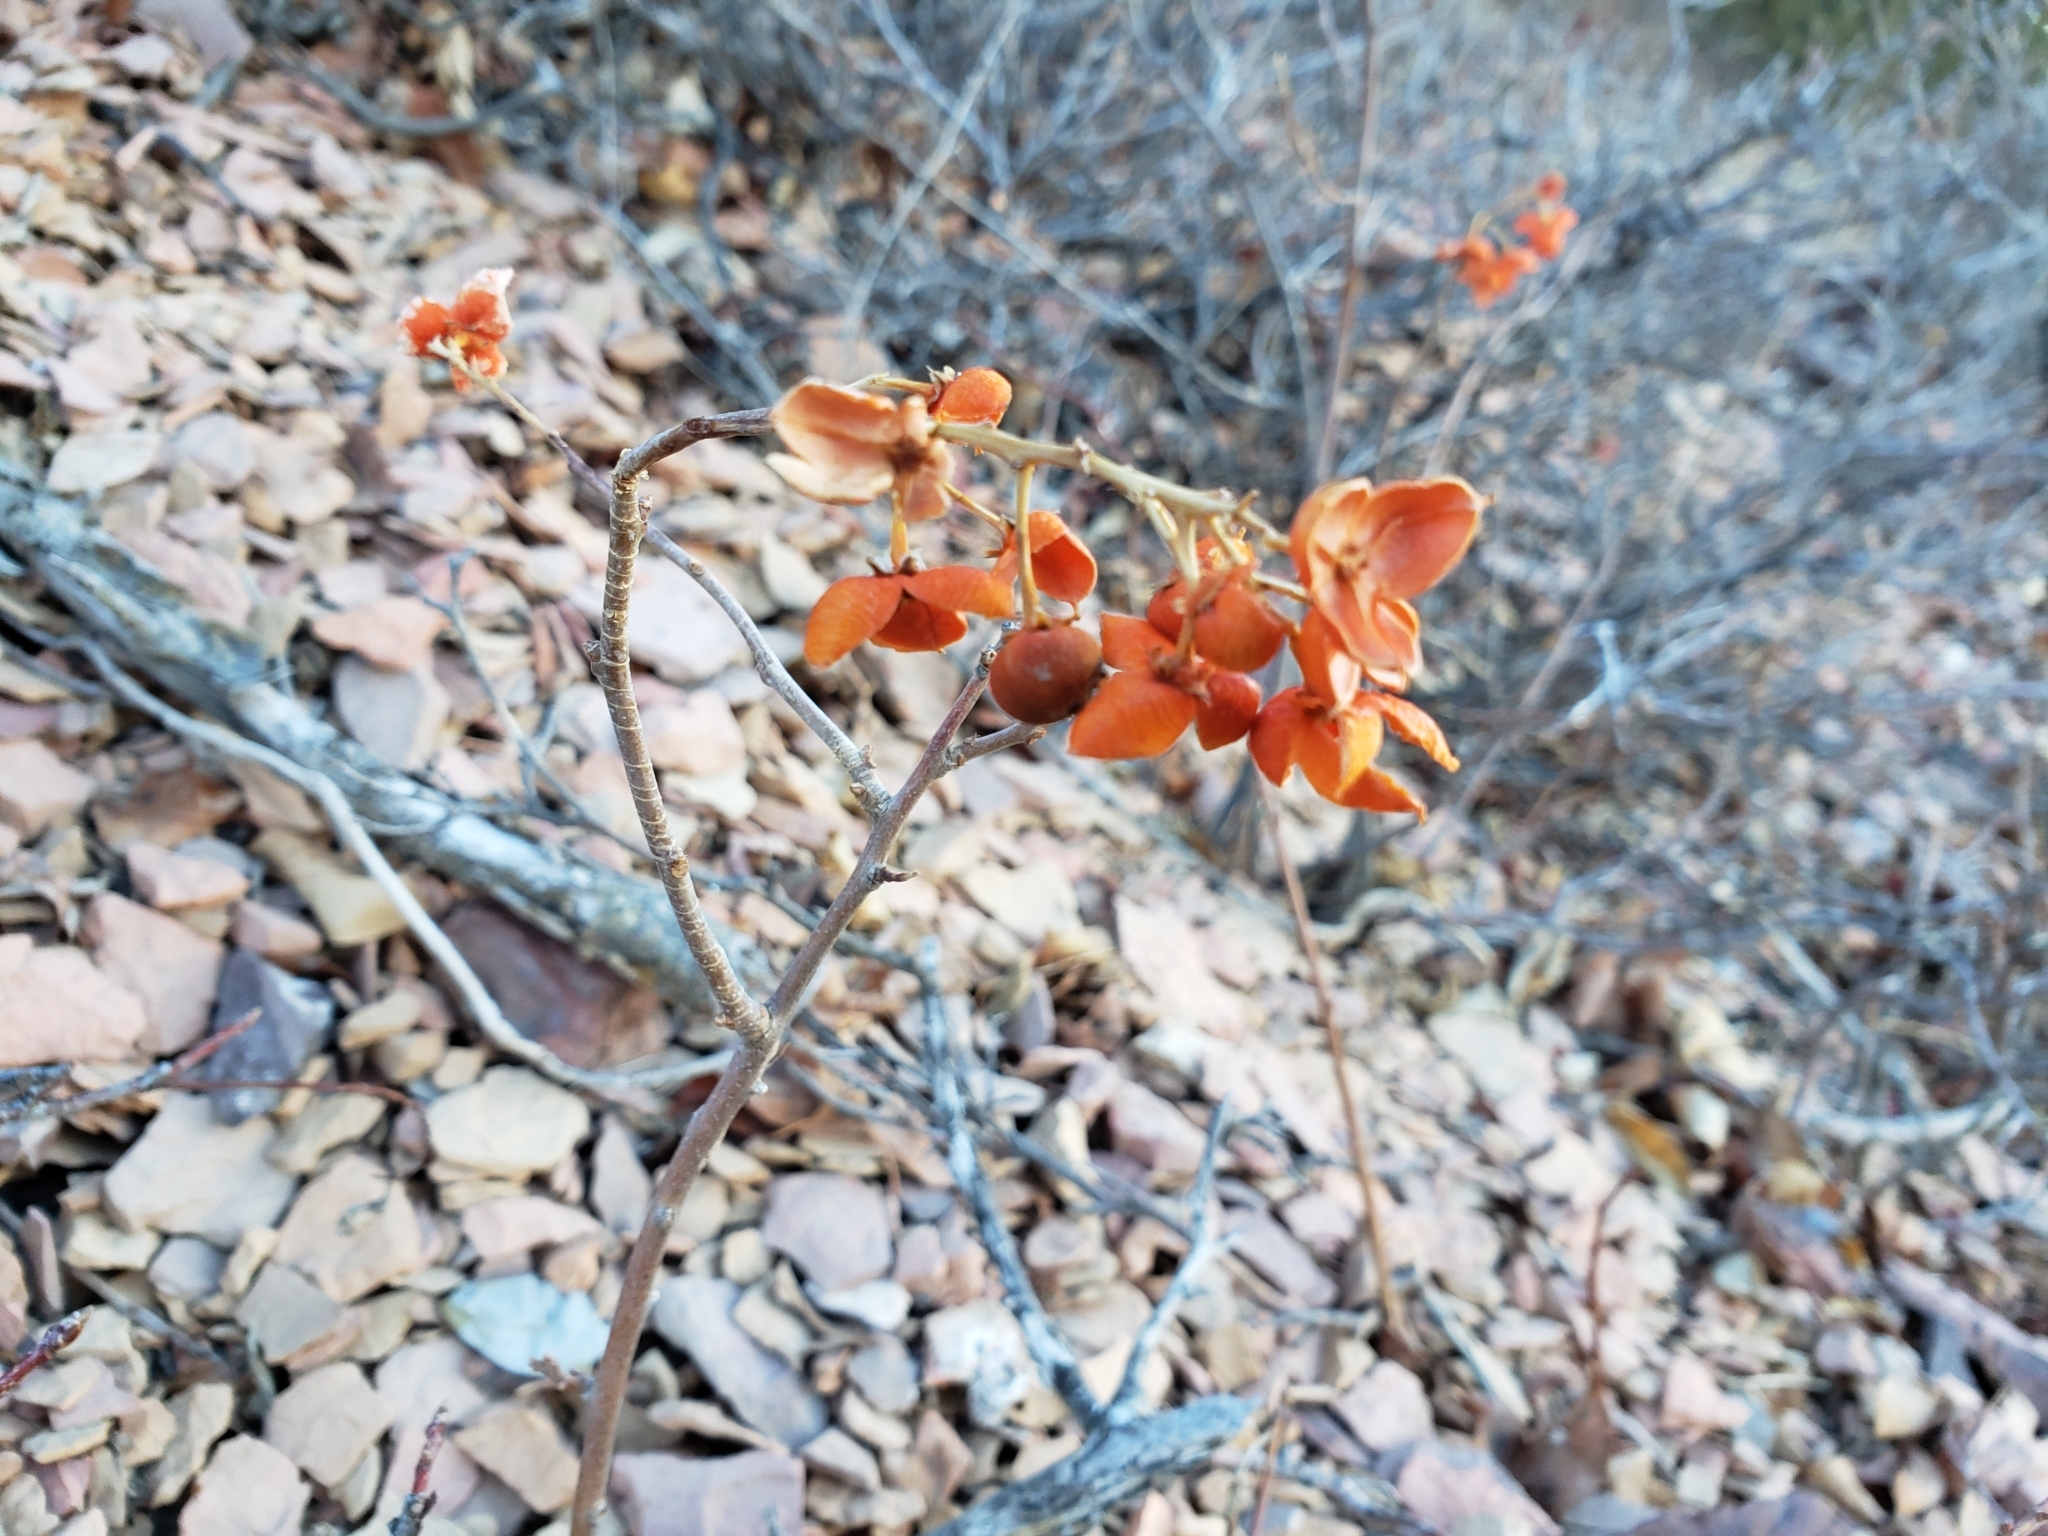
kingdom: Plantae
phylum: Tracheophyta
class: Magnoliopsida
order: Celastrales
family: Celastraceae
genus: Celastrus
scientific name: Celastrus scandens
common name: American bittersweet
